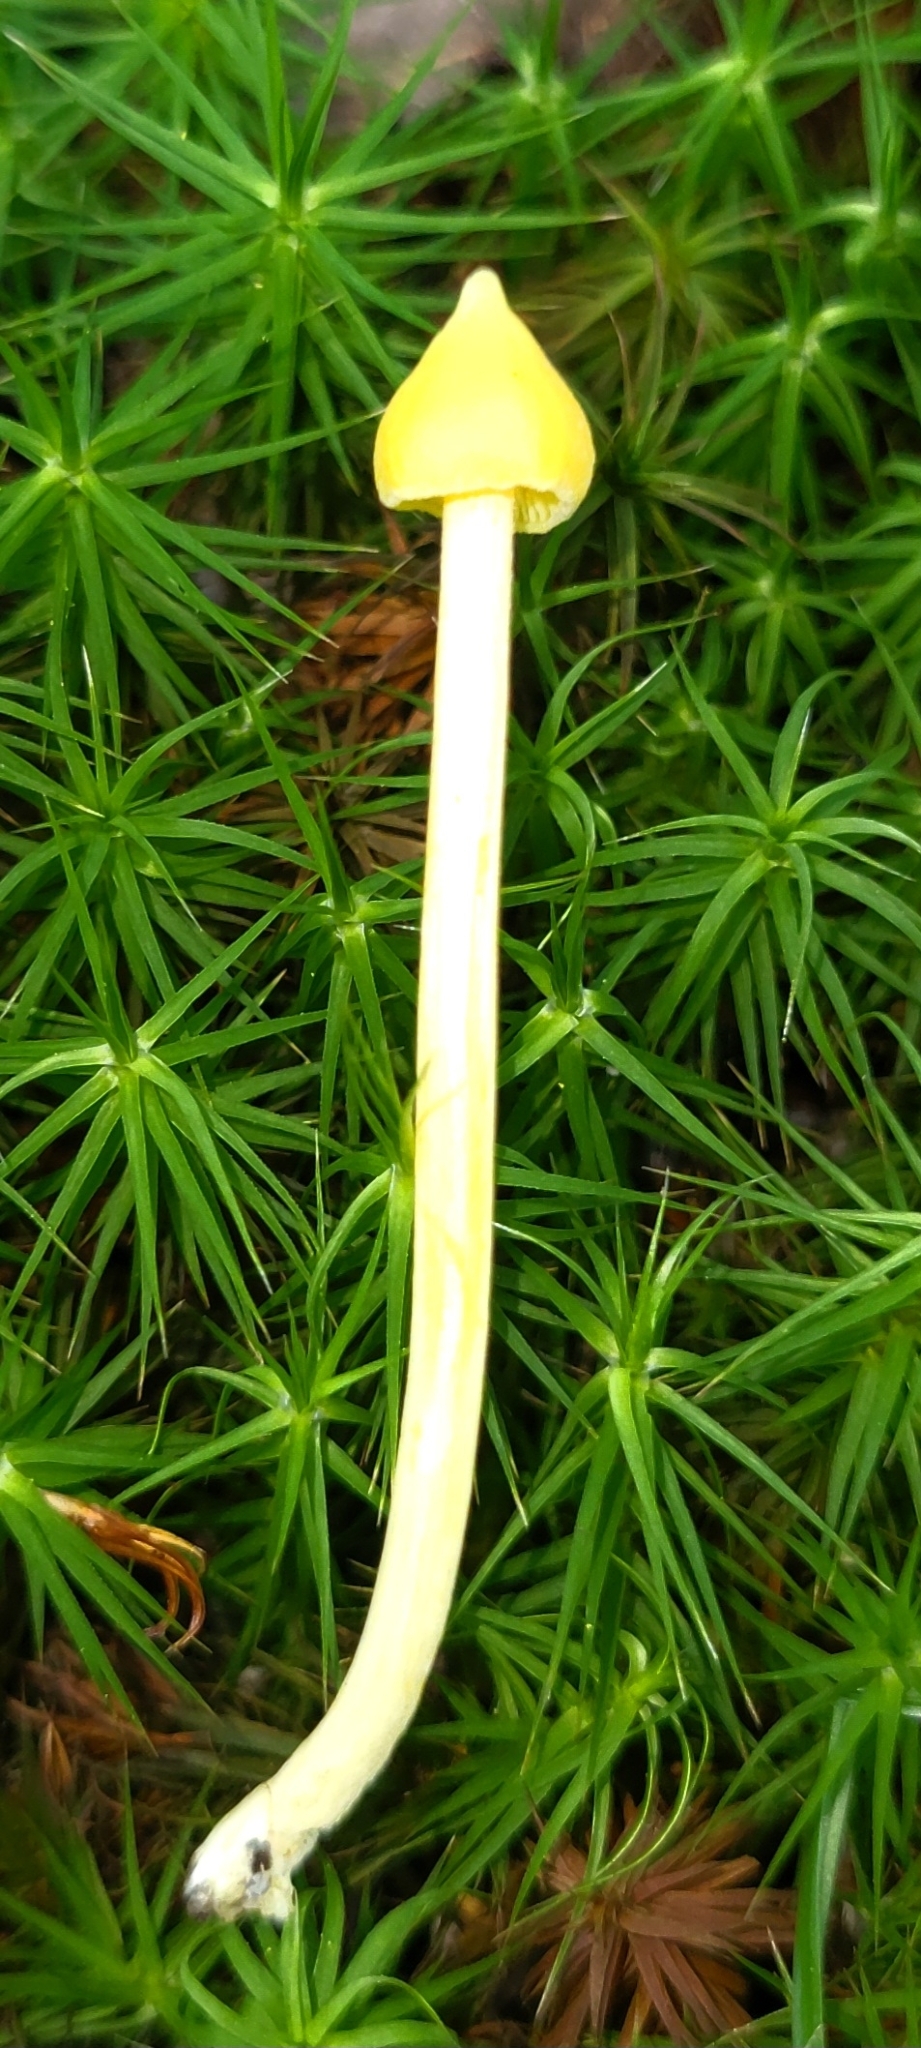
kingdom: Fungi
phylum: Basidiomycota
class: Agaricomycetes
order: Agaricales
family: Entolomataceae
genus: Entoloma
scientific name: Entoloma murrayi
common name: Yellow unicorn entoloma
